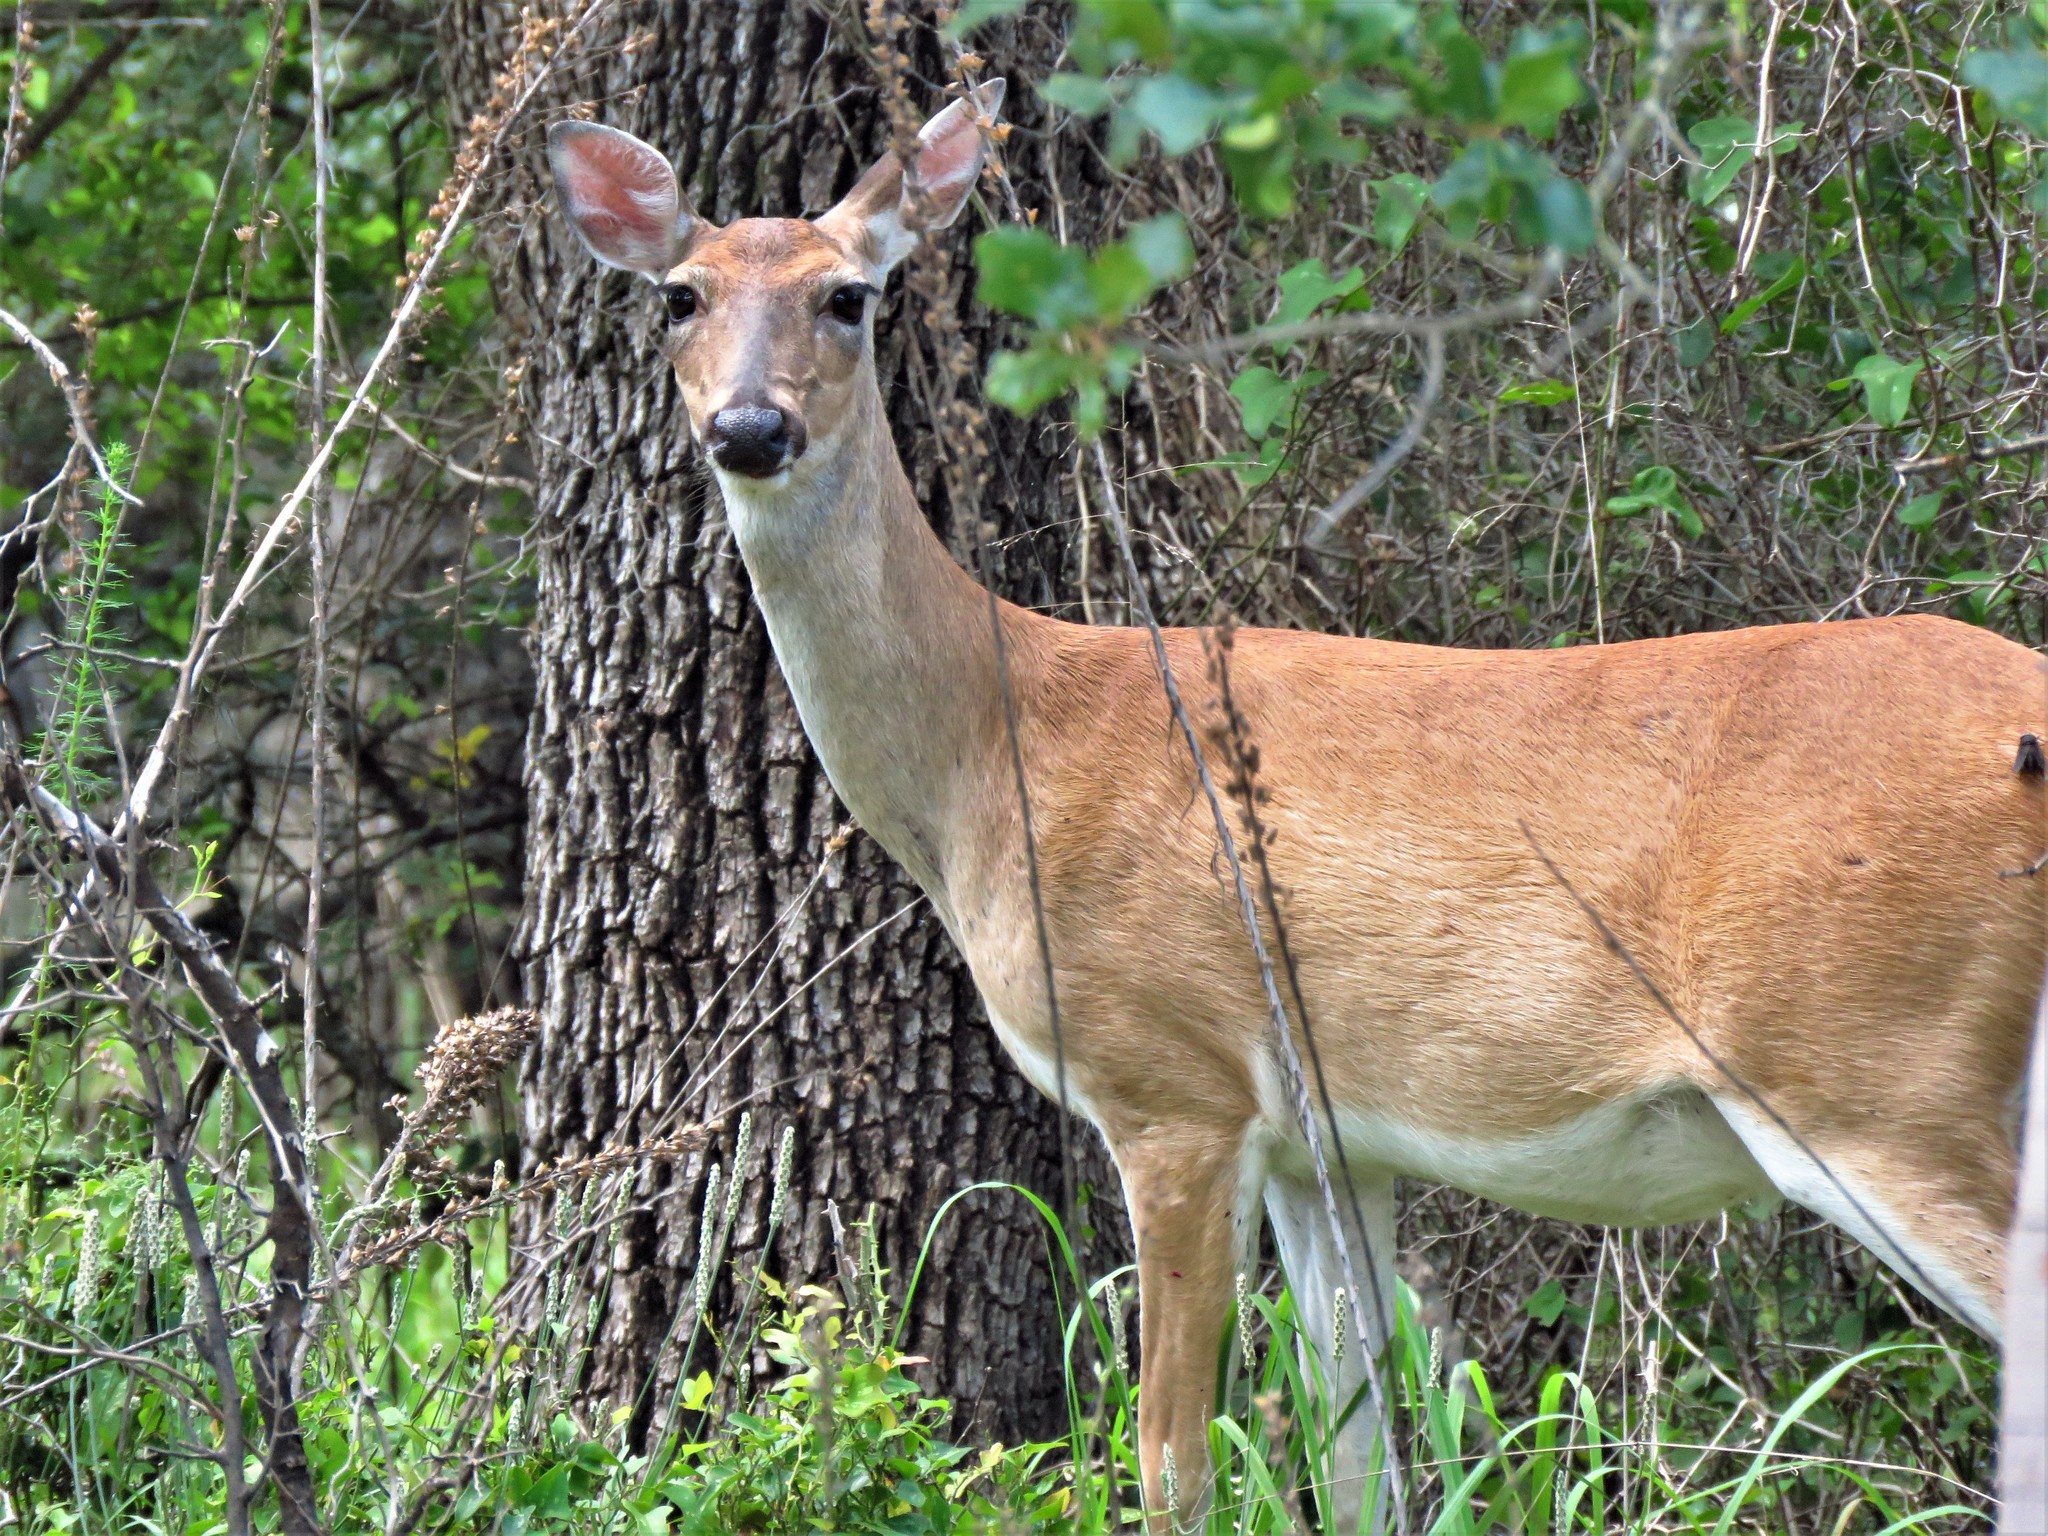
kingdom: Animalia
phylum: Chordata
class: Mammalia
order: Artiodactyla
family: Cervidae
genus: Odocoileus
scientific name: Odocoileus virginianus
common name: White-tailed deer
